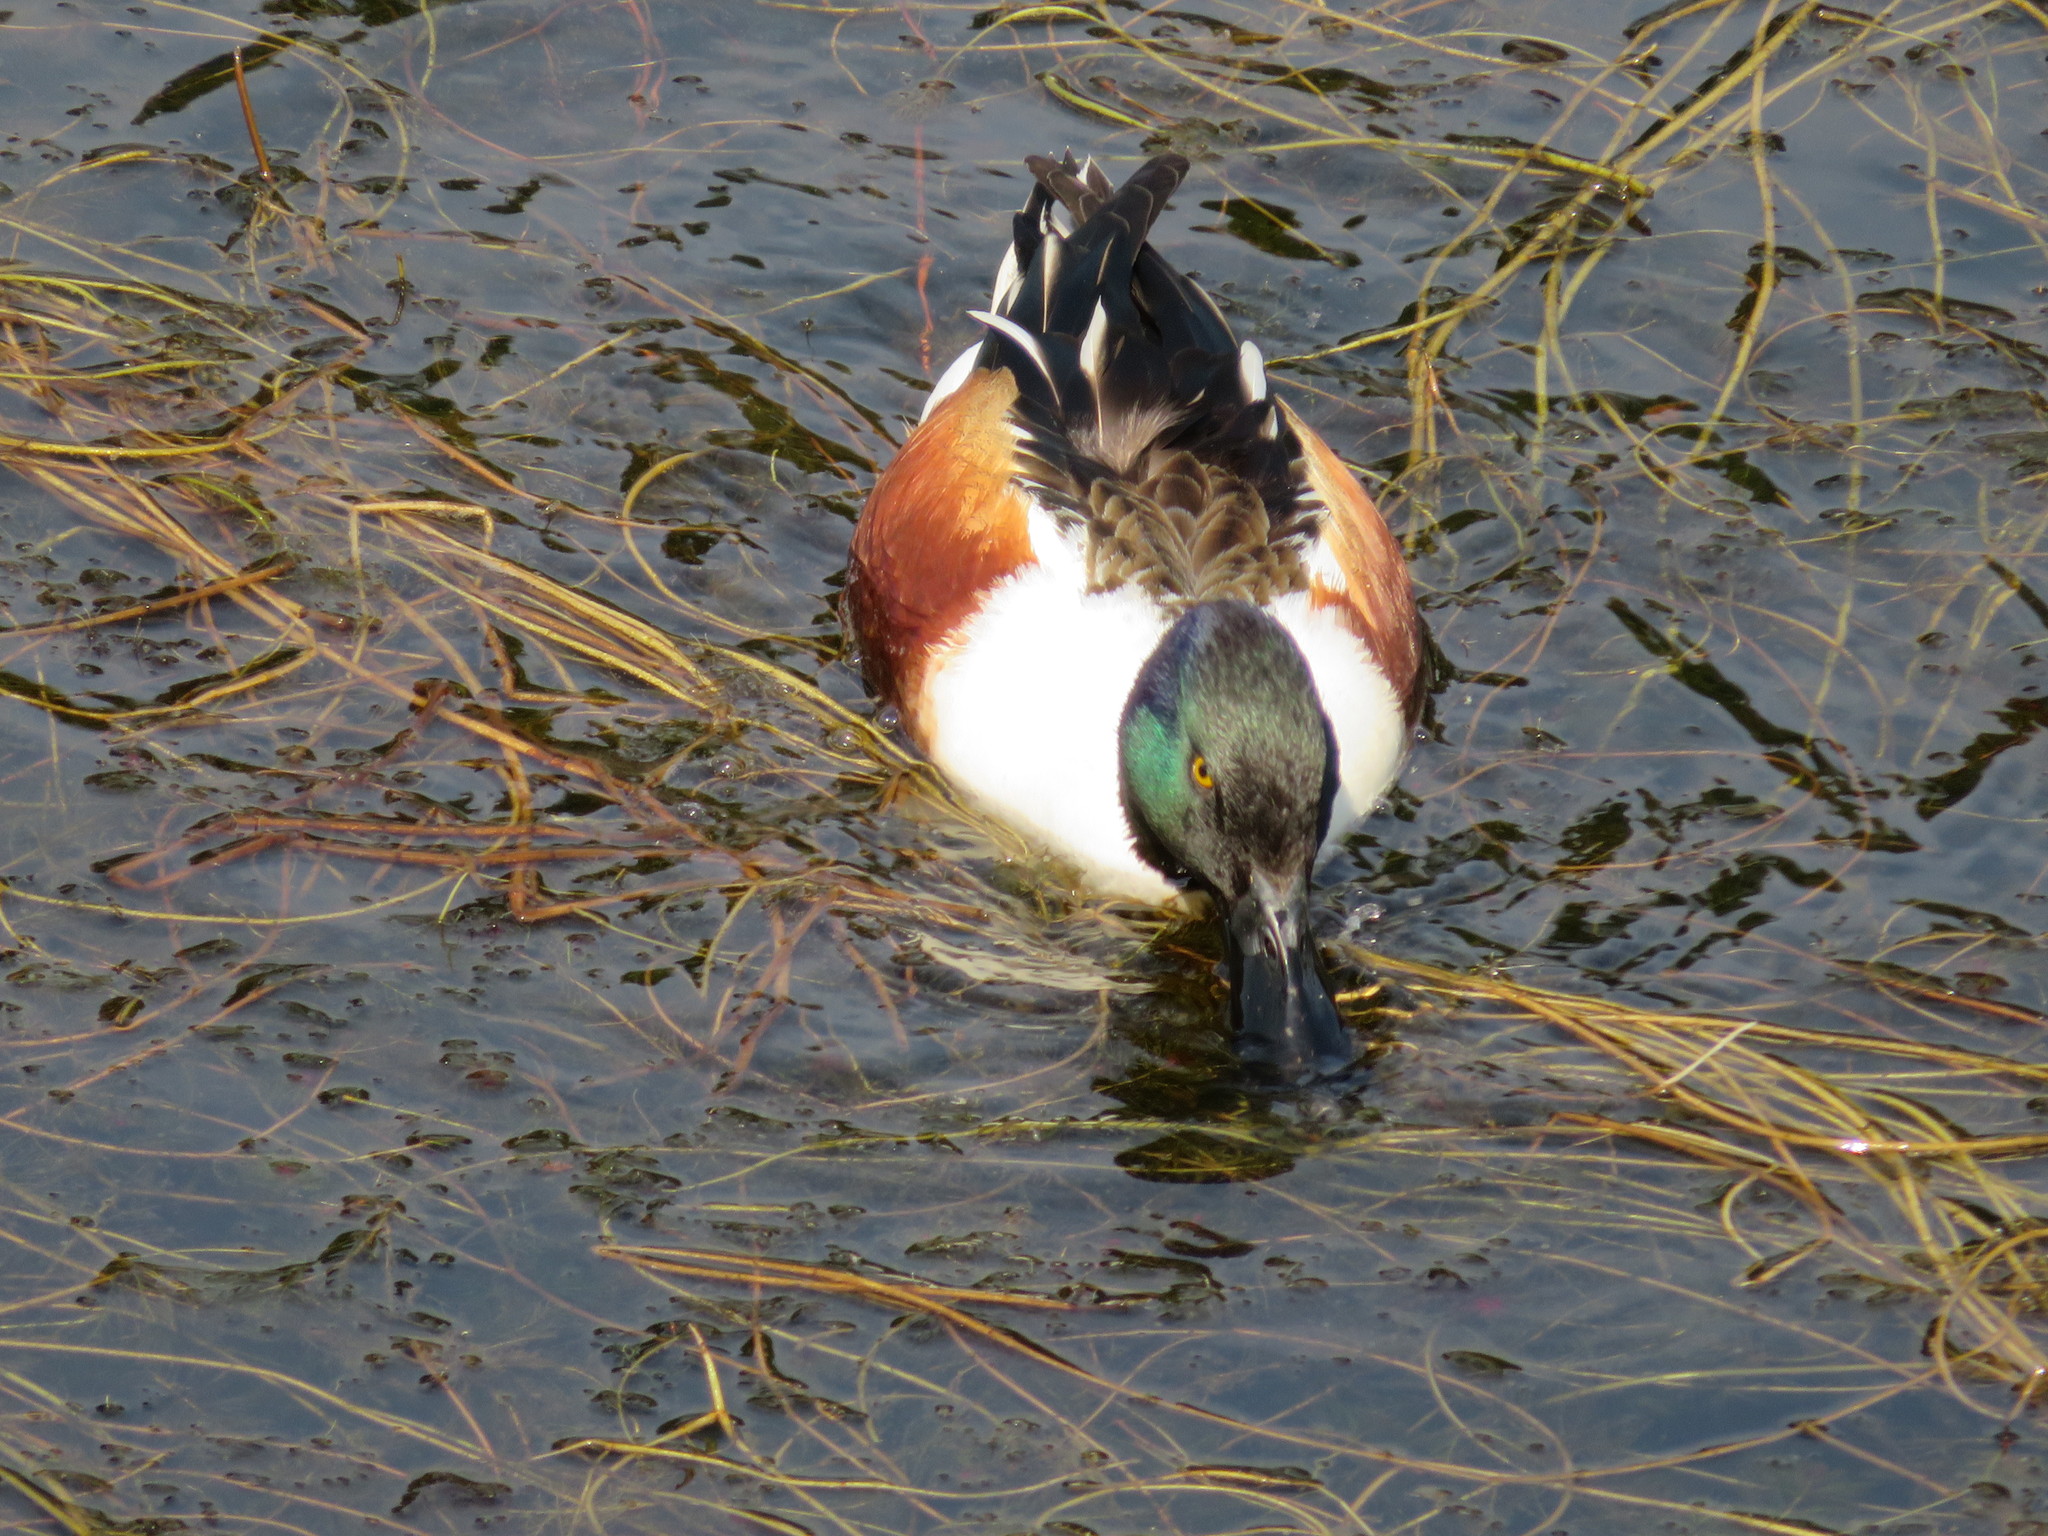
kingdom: Animalia
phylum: Chordata
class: Aves
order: Anseriformes
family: Anatidae
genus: Spatula
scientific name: Spatula clypeata
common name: Northern shoveler
